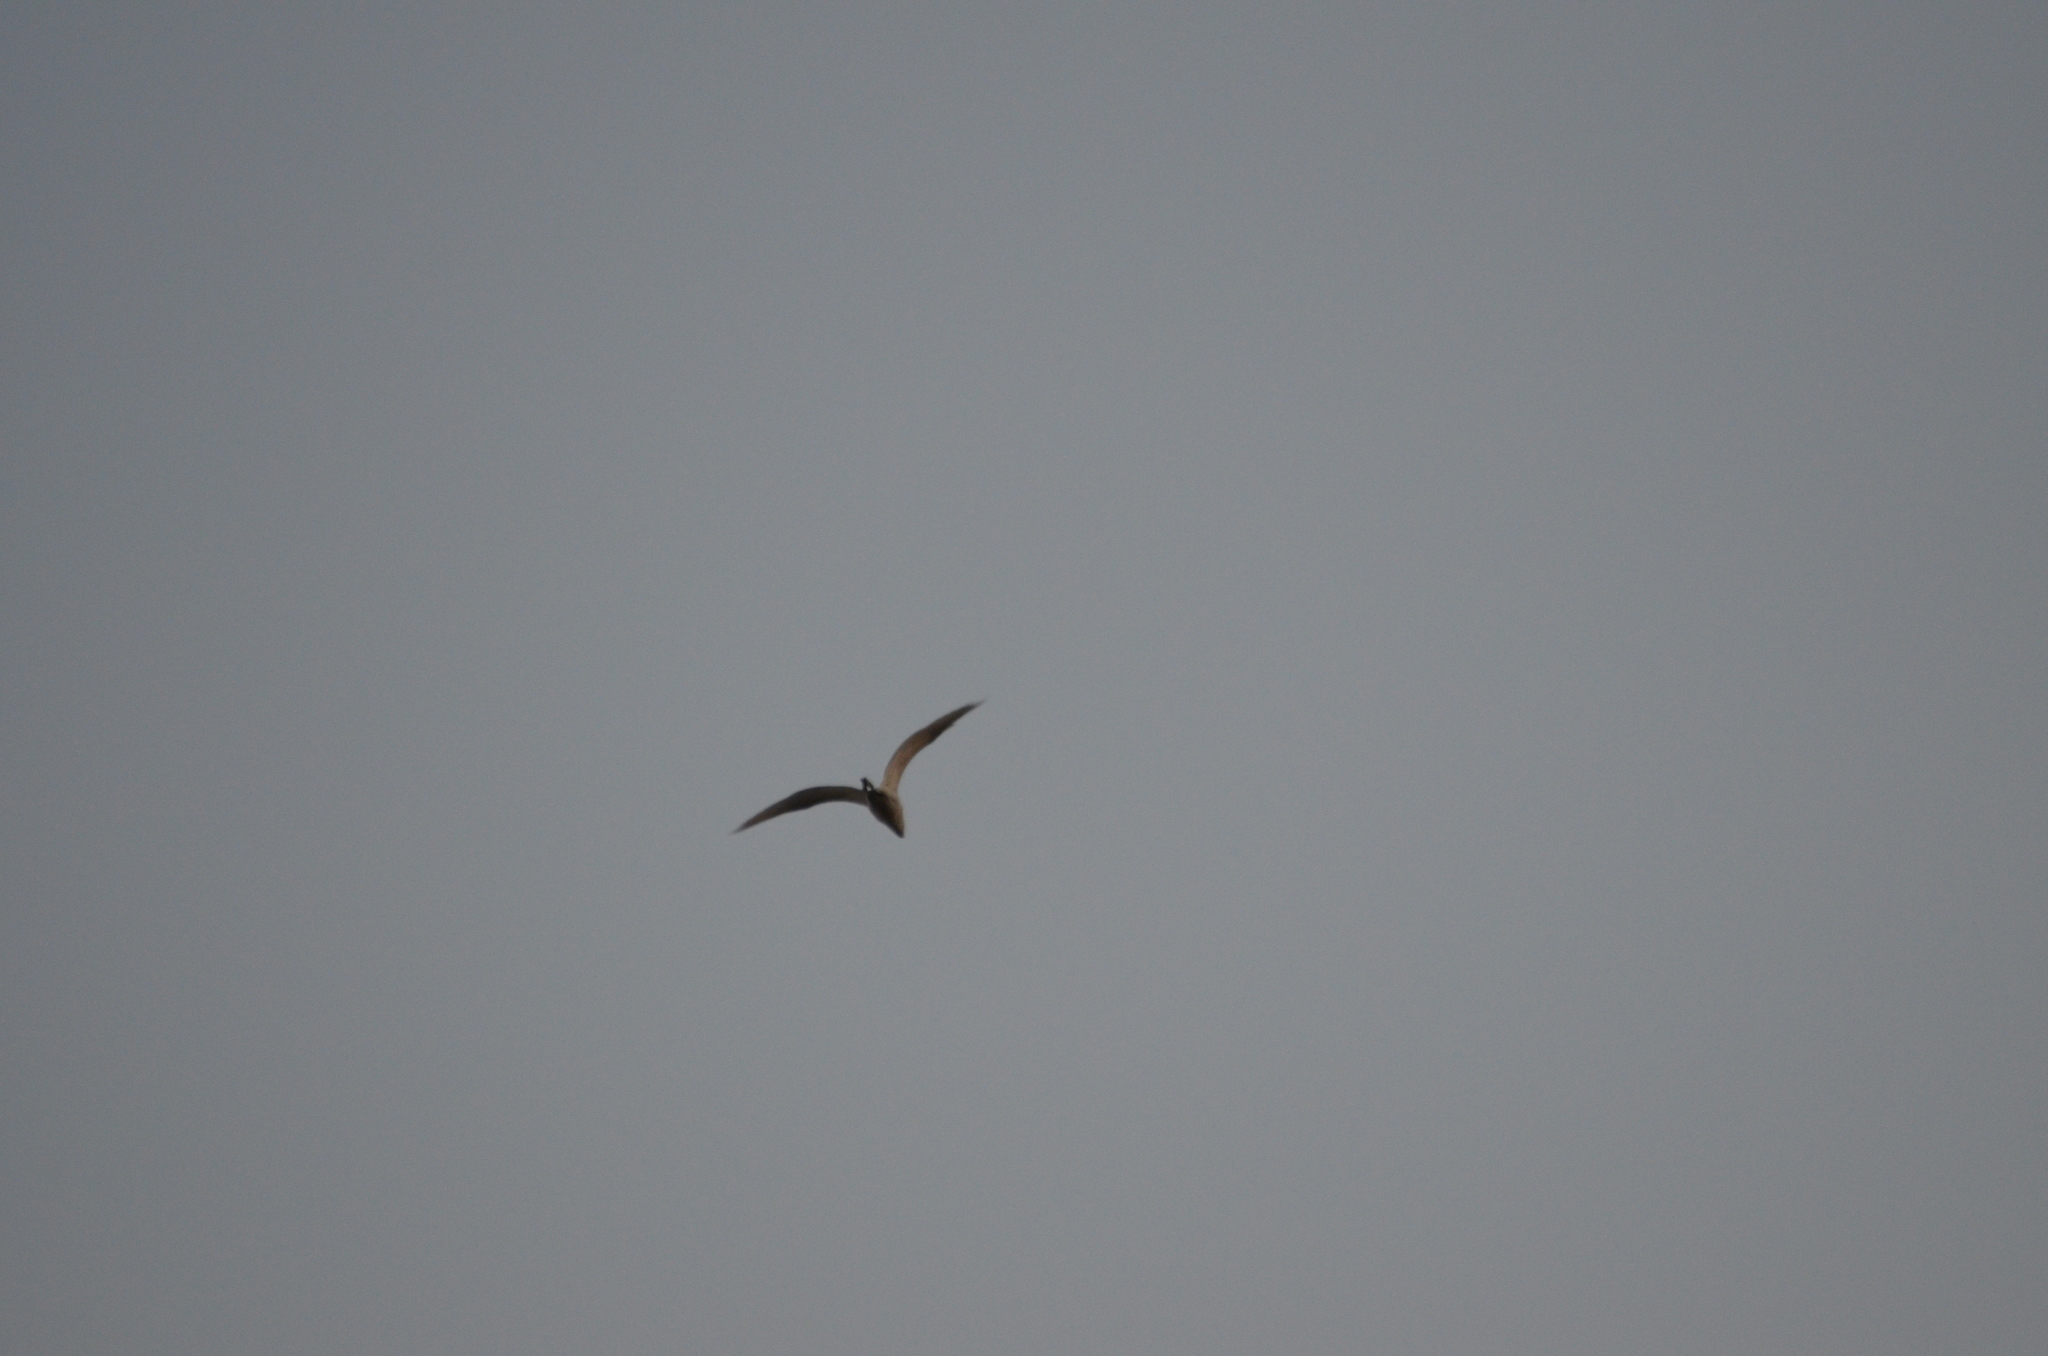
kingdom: Animalia
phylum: Chordata
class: Aves
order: Pelecaniformes
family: Ardeidae
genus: Bubulcus
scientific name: Bubulcus ibis
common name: Cattle egret
